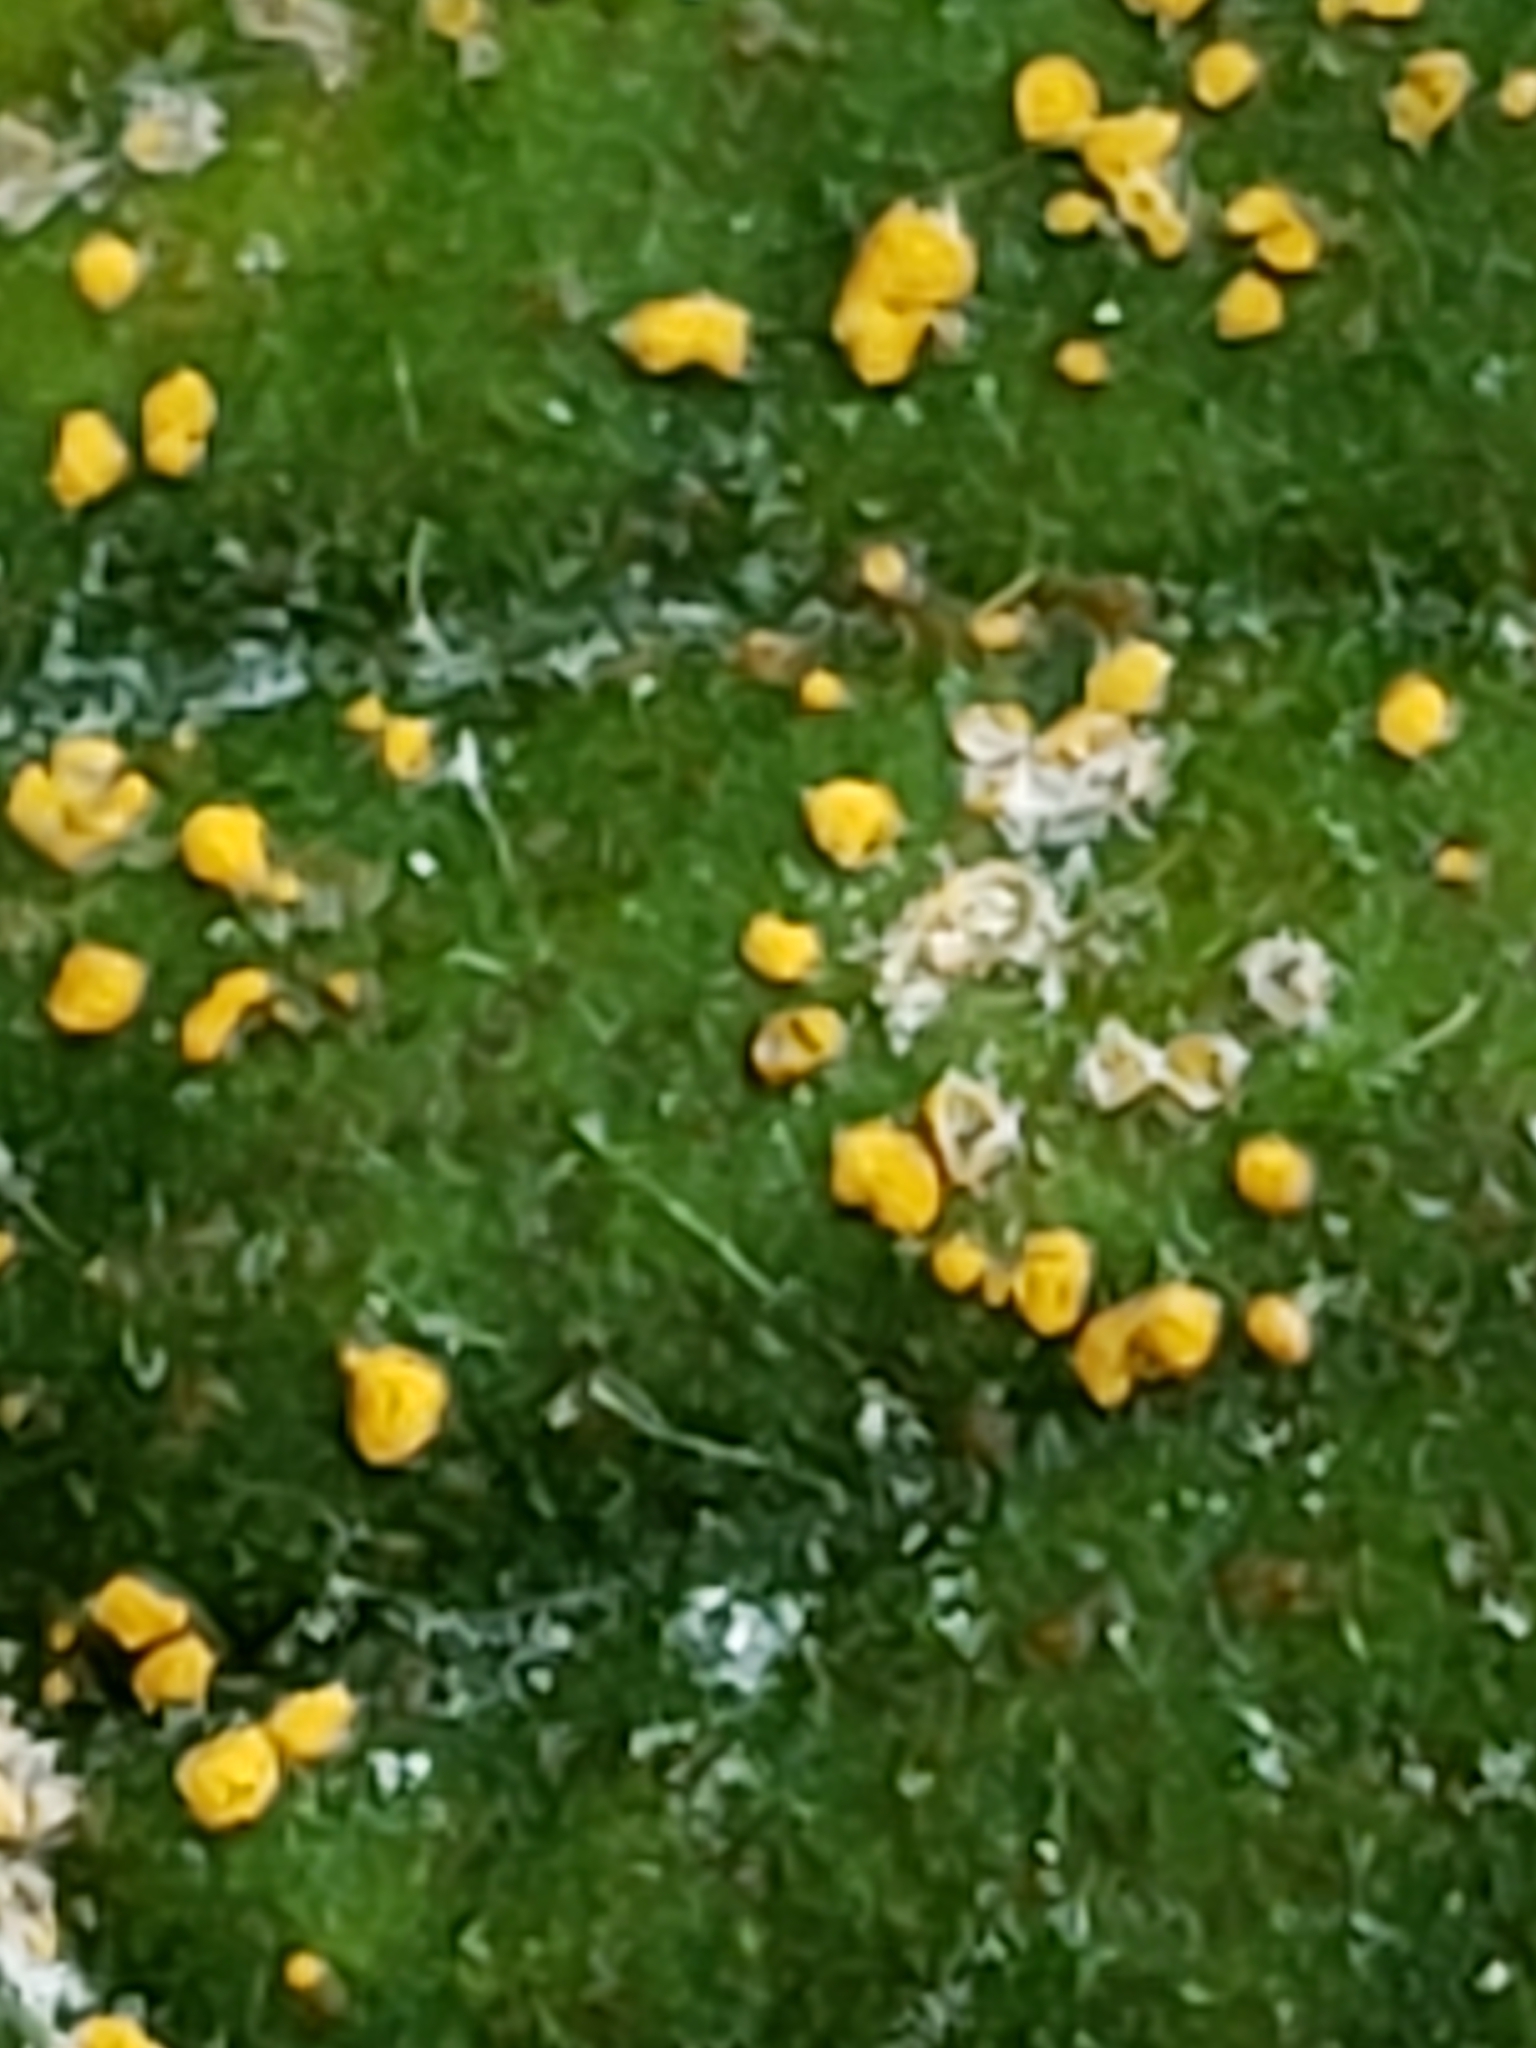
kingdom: Fungi
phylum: Basidiomycota
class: Pucciniomycetes
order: Pucciniales
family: Coleosporiaceae
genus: Coleosporium
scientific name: Coleosporium elephantopodis
